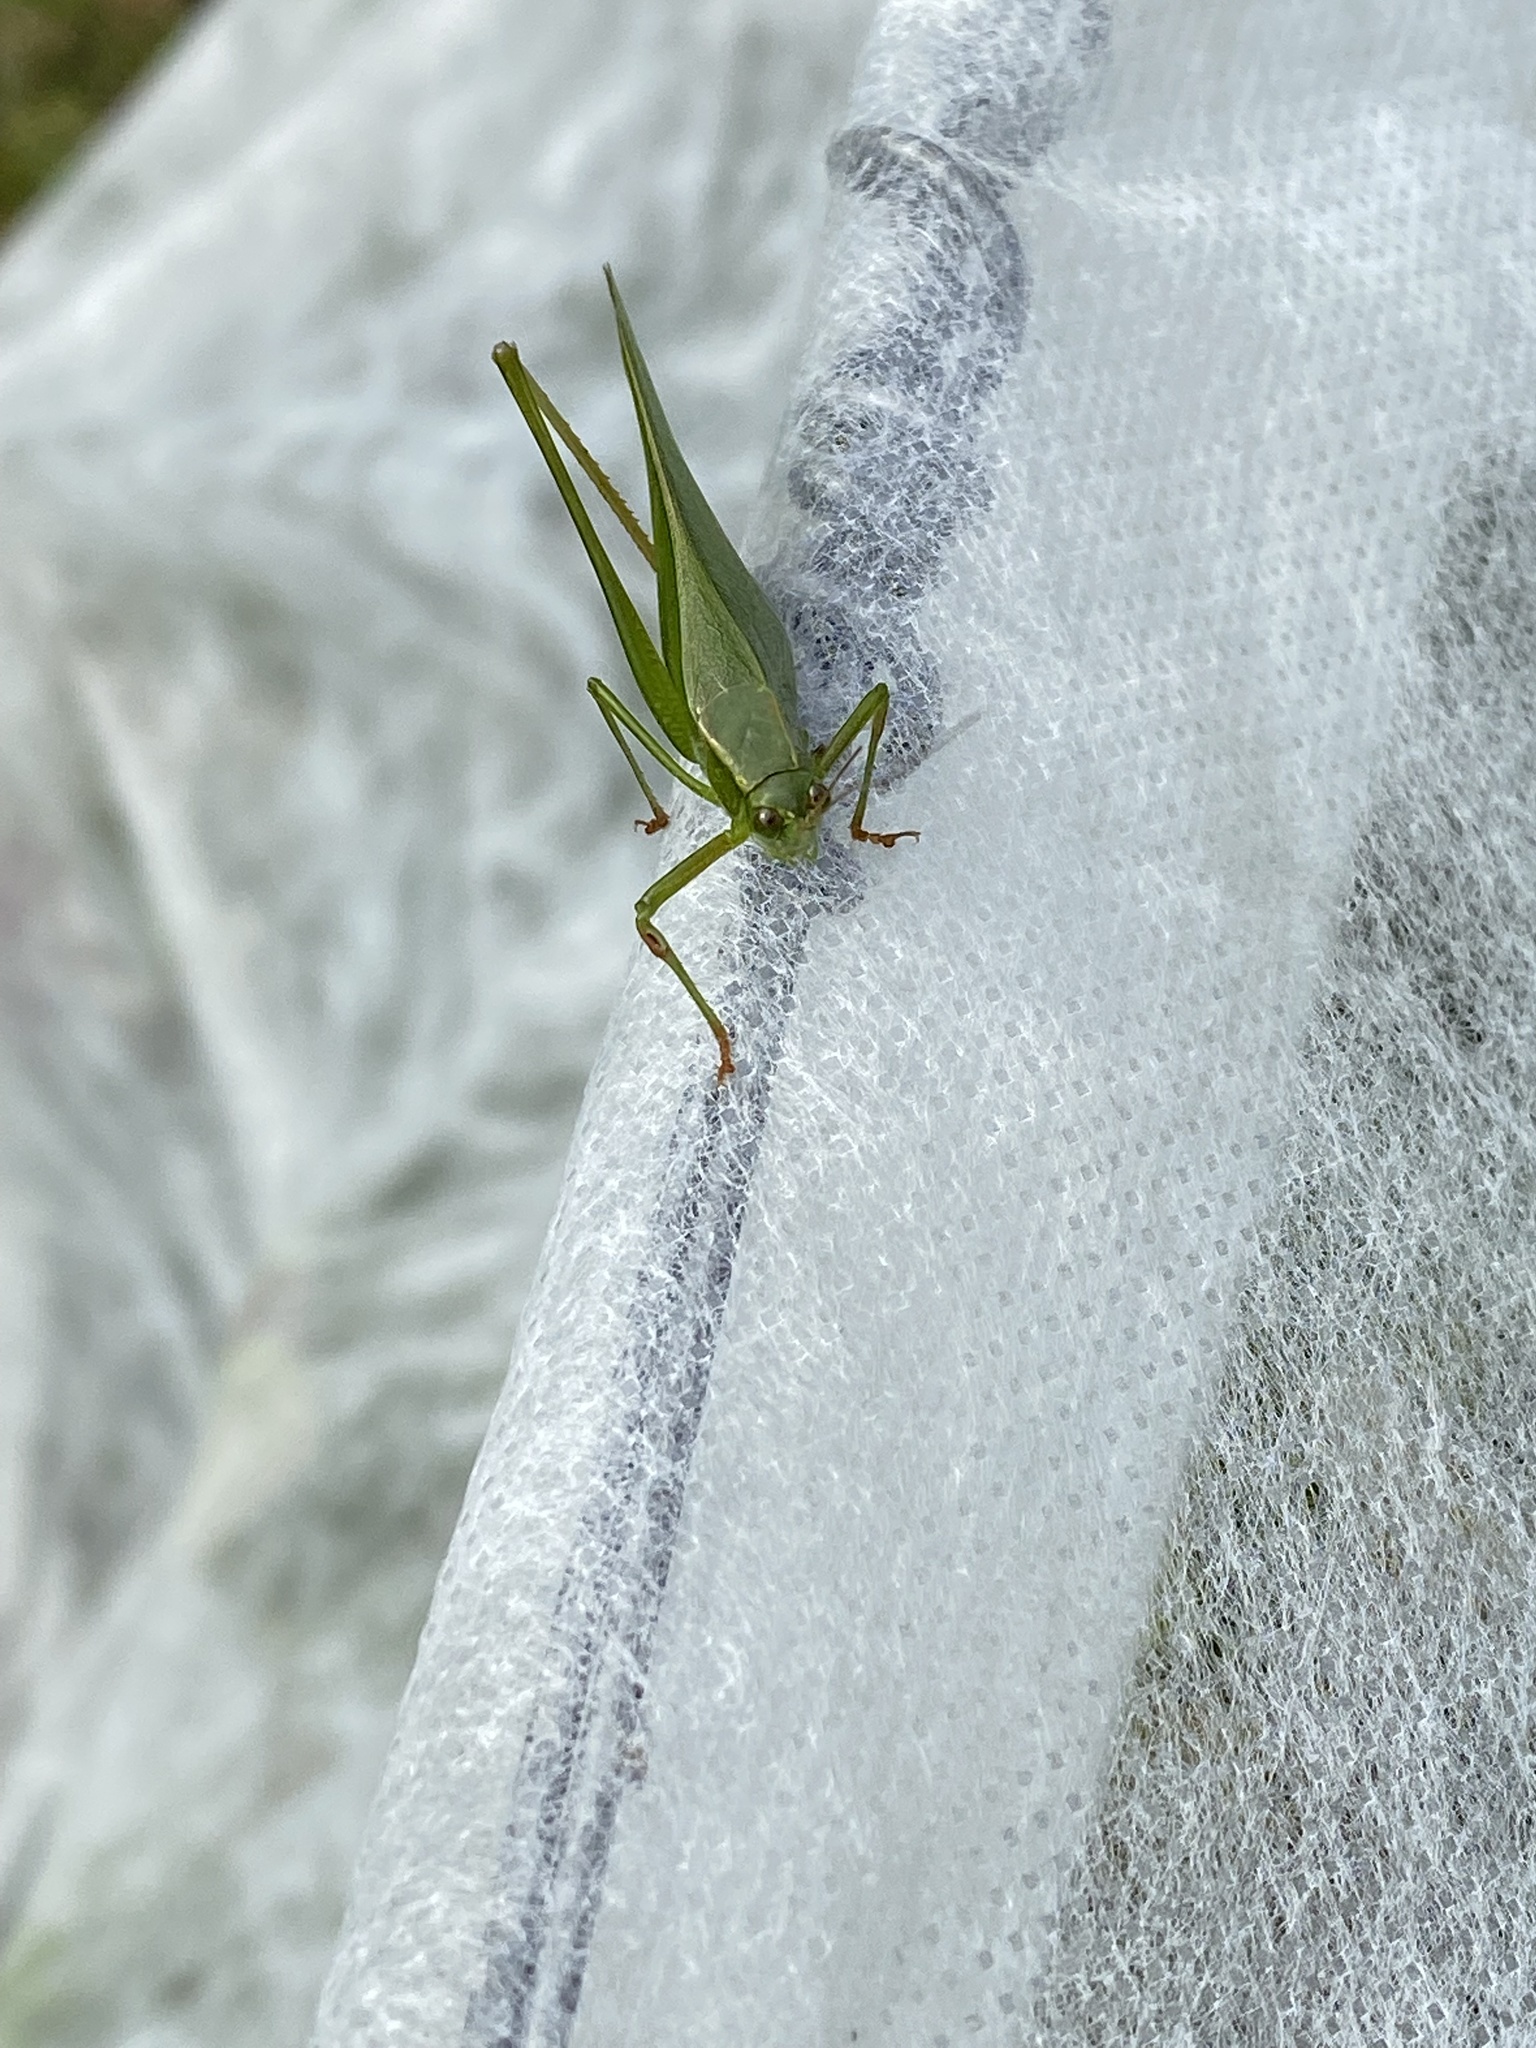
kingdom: Animalia
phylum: Arthropoda
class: Insecta
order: Orthoptera
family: Tettigoniidae
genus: Scudderia
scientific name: Scudderia furcata
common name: Fork-tailed bush katydid
